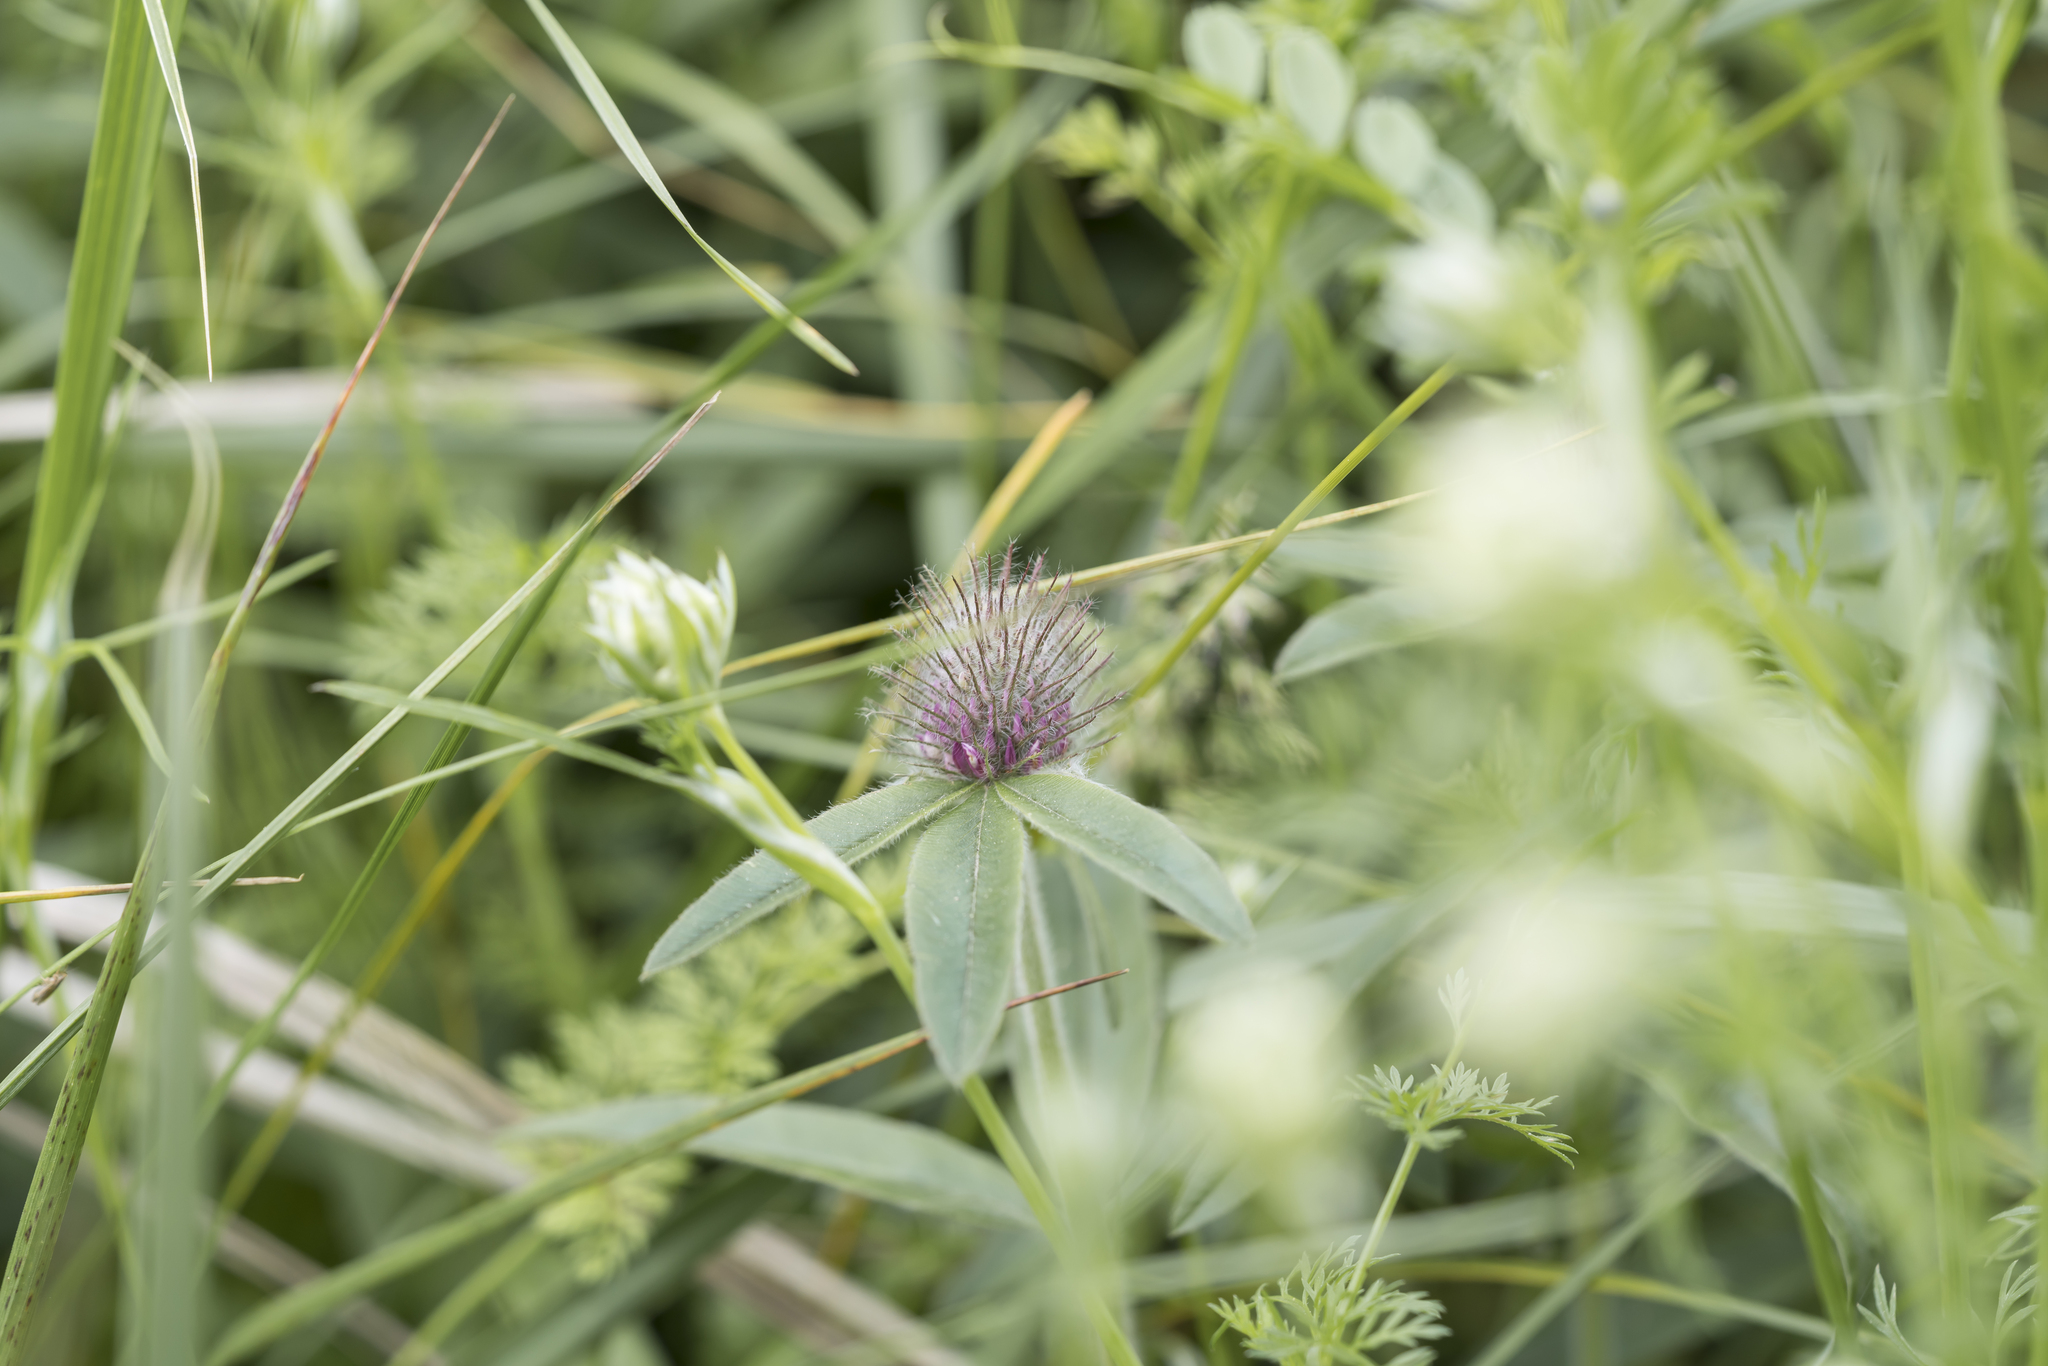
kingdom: Plantae
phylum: Tracheophyta
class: Magnoliopsida
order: Fabales
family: Fabaceae
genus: Trifolium
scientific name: Trifolium alpestre
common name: Owl-head clover
